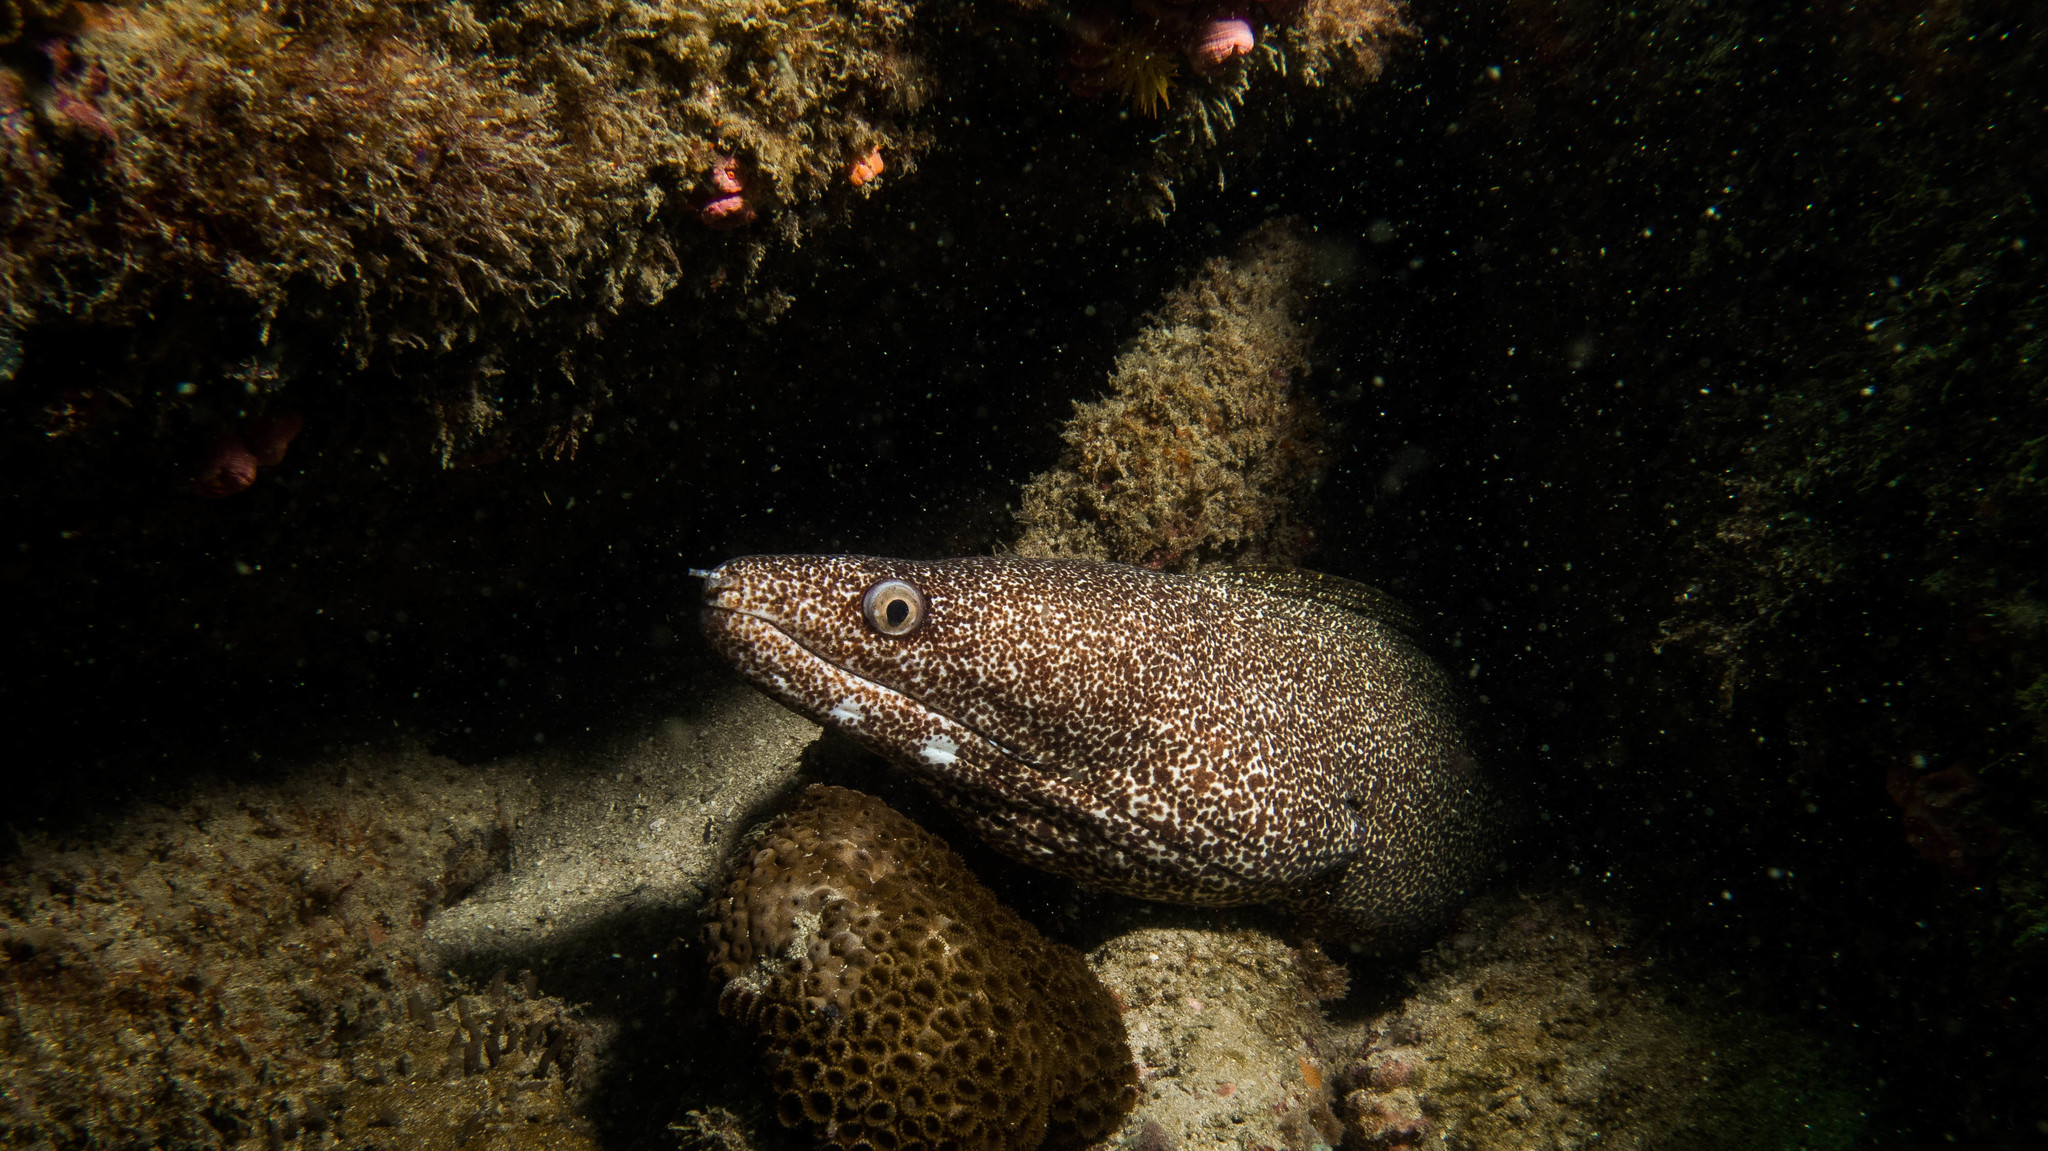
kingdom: Animalia
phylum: Chordata
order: Anguilliformes
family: Muraenidae
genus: Gymnothorax
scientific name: Gymnothorax moringa
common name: Spotted moray
